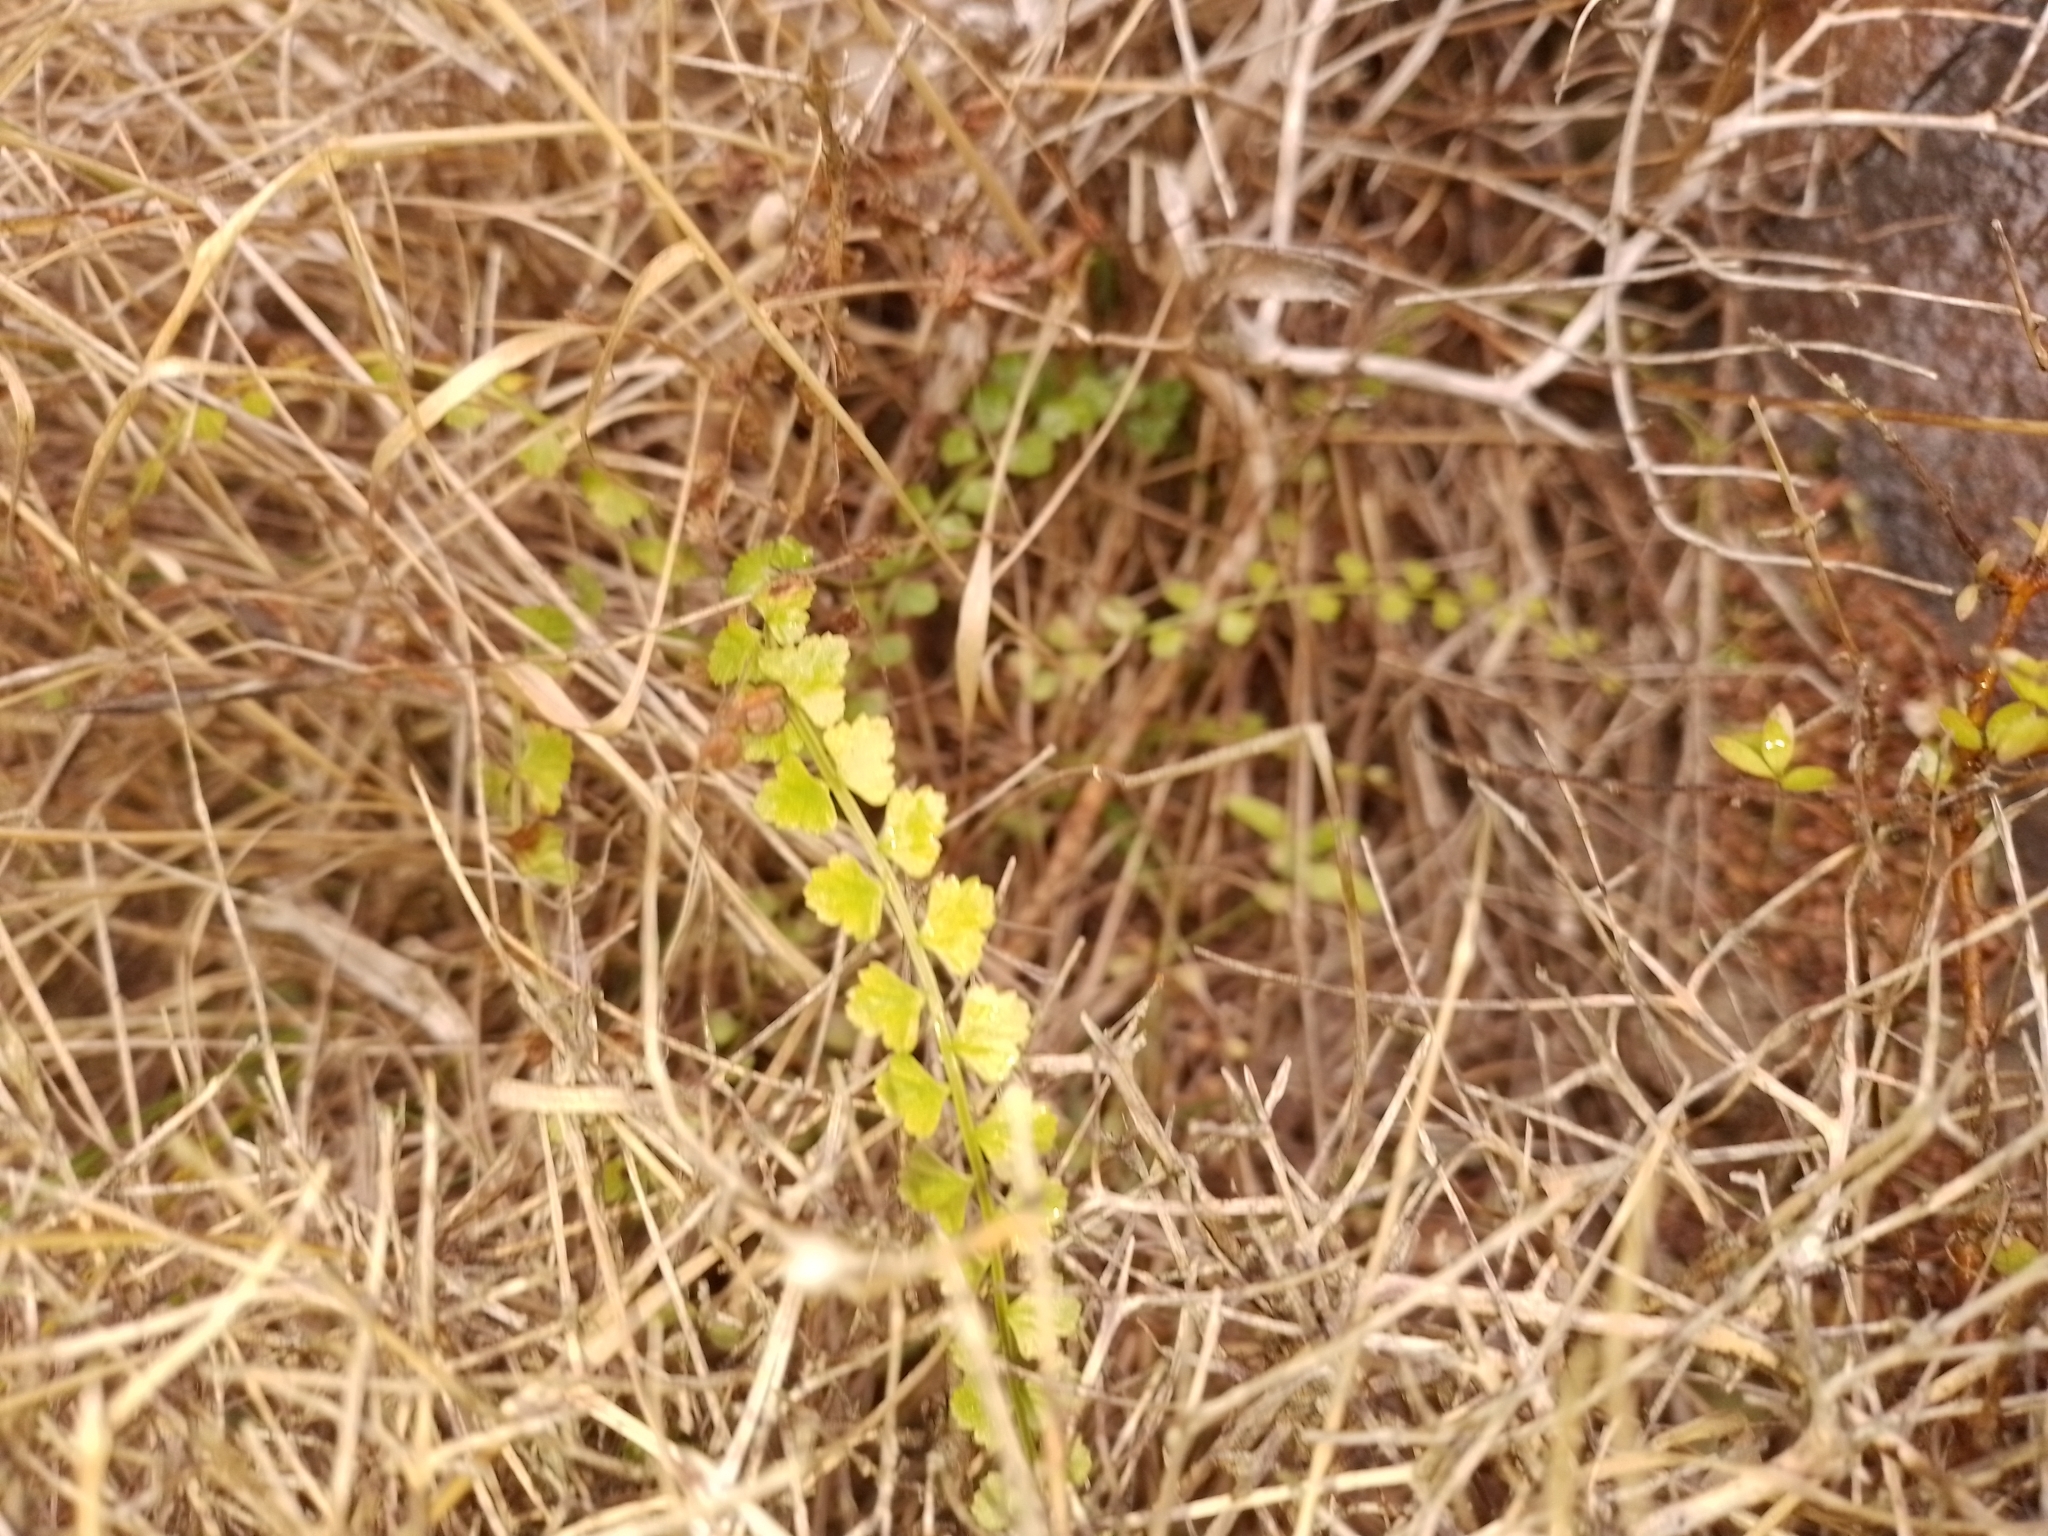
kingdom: Plantae
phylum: Tracheophyta
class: Polypodiopsida
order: Polypodiales
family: Aspleniaceae
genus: Asplenium
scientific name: Asplenium flabellifolium
